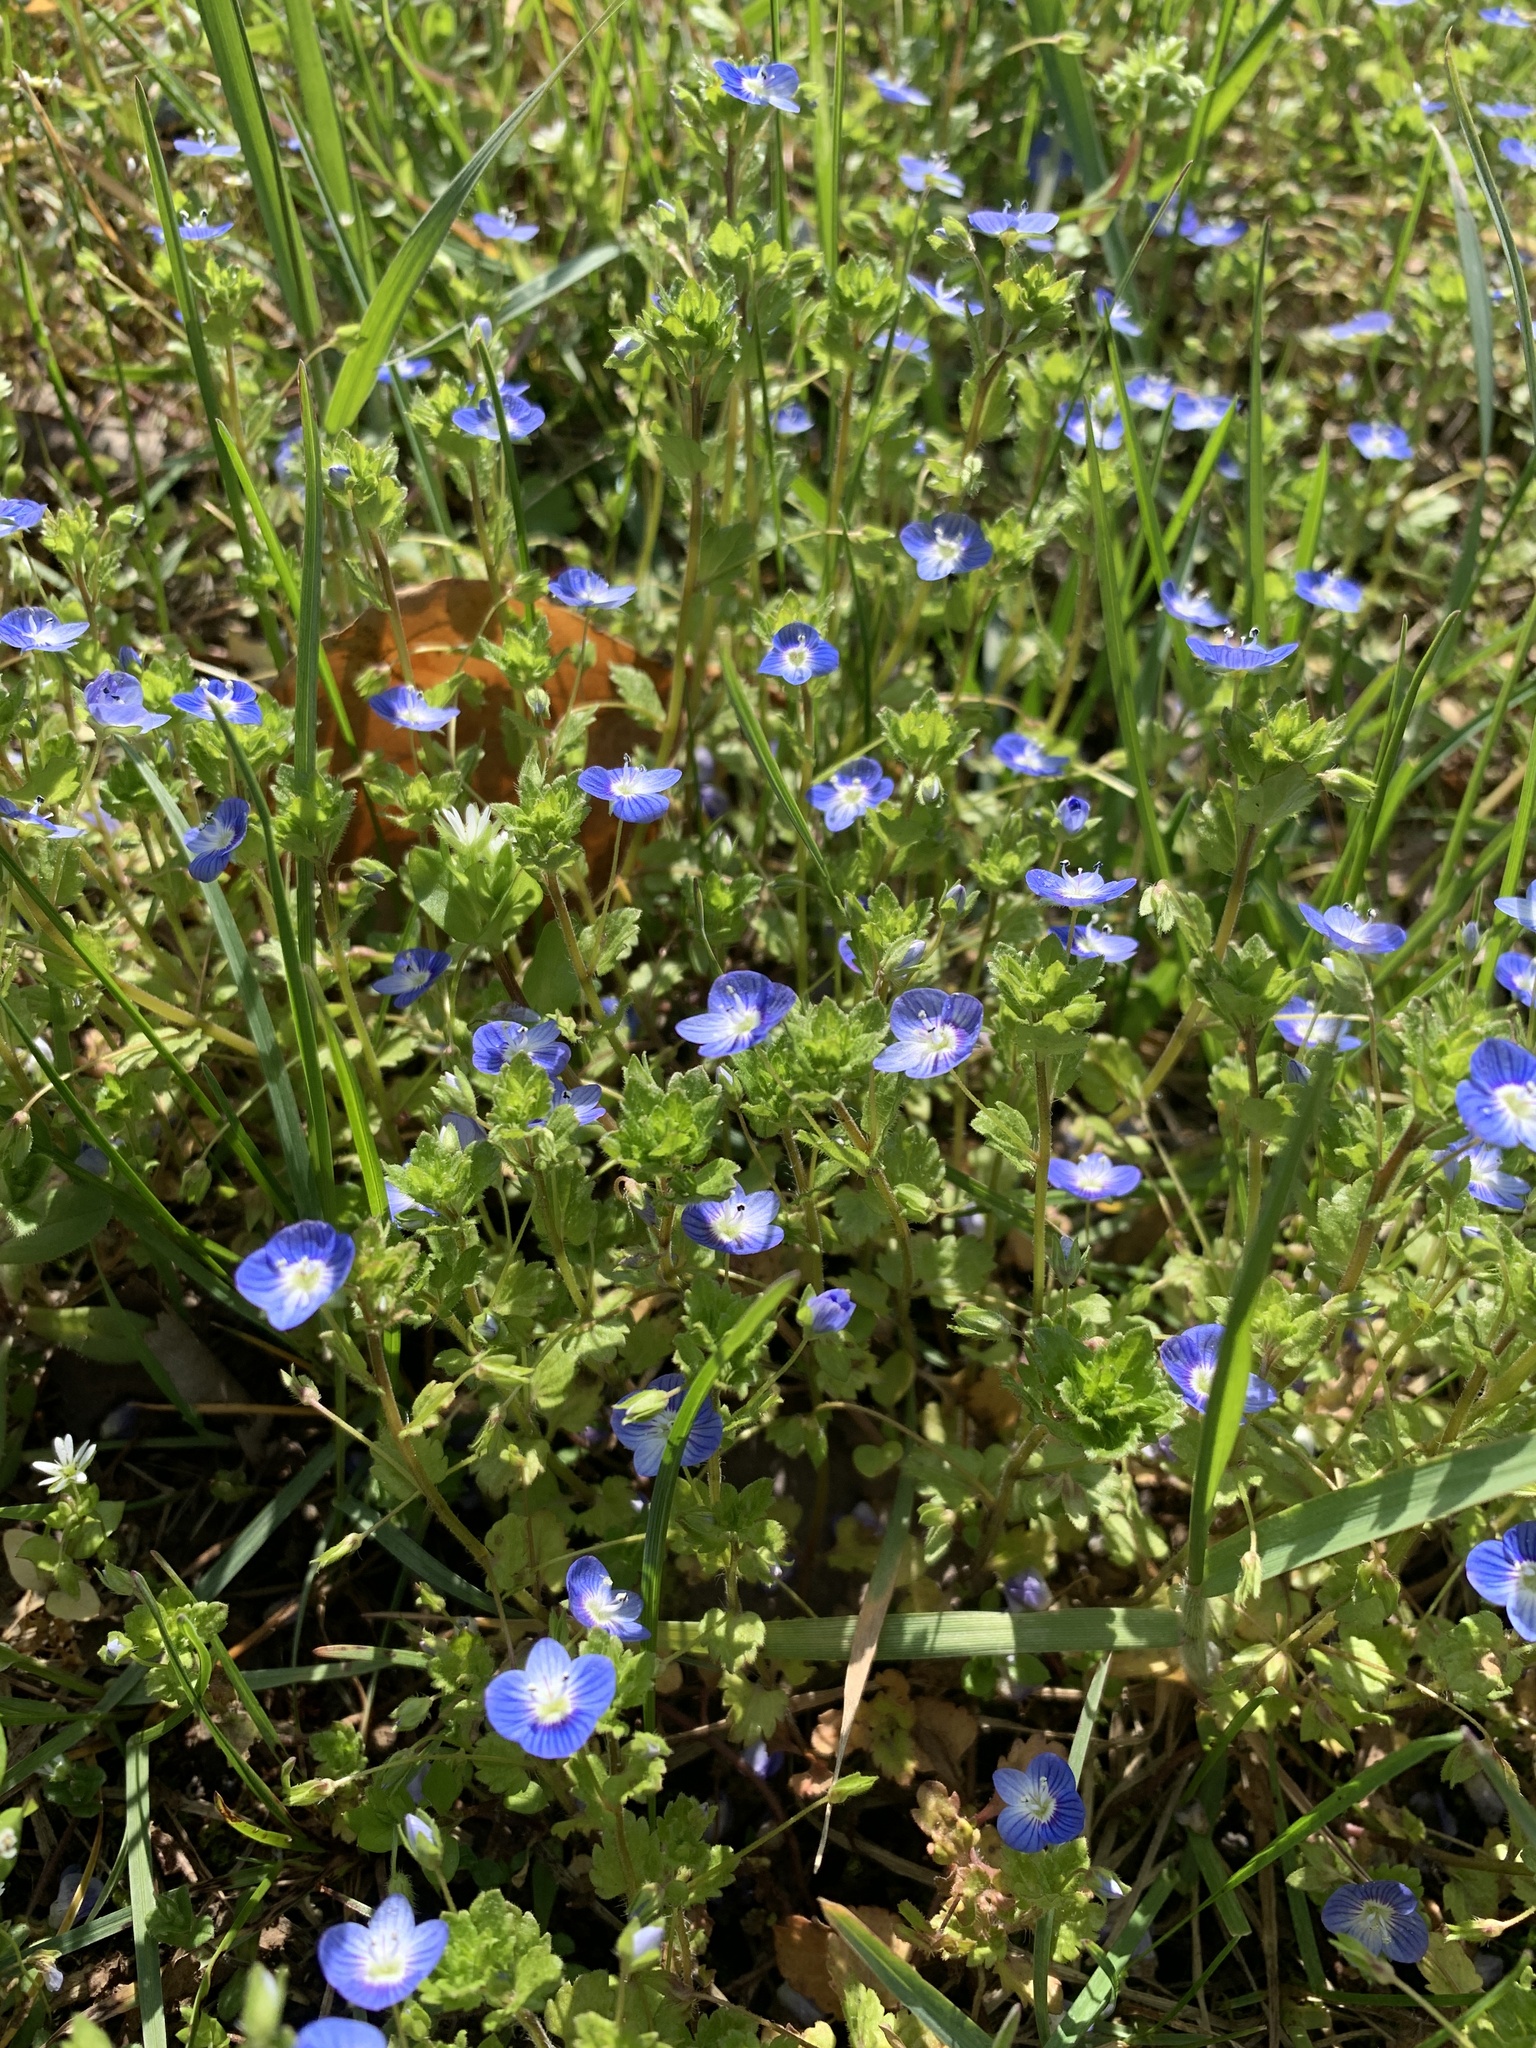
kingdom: Plantae
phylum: Tracheophyta
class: Magnoliopsida
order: Lamiales
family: Plantaginaceae
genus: Veronica
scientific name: Veronica persica
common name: Common field-speedwell
